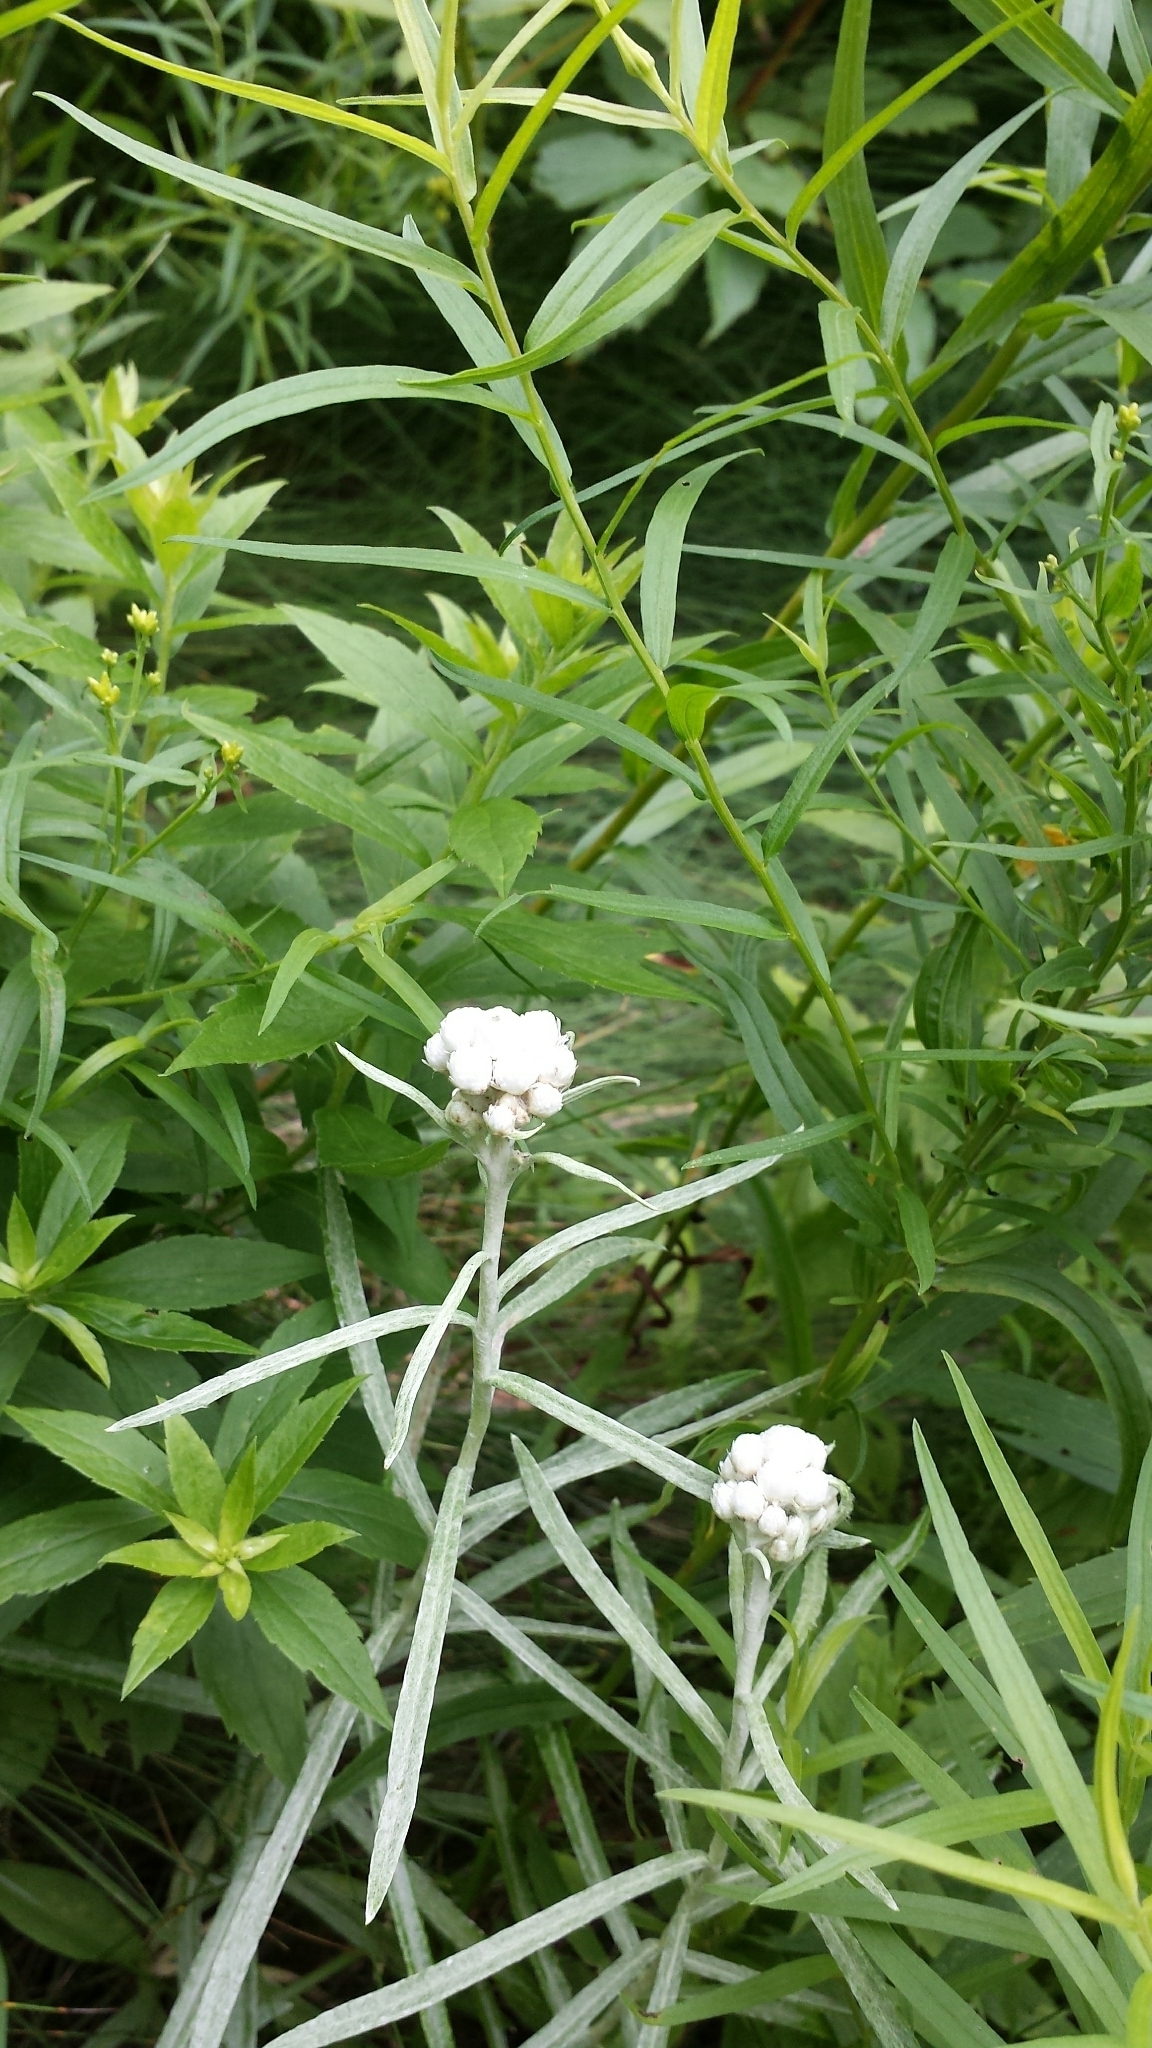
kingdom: Plantae
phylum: Tracheophyta
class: Magnoliopsida
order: Asterales
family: Asteraceae
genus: Anaphalis
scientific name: Anaphalis margaritacea
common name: Pearly everlasting
